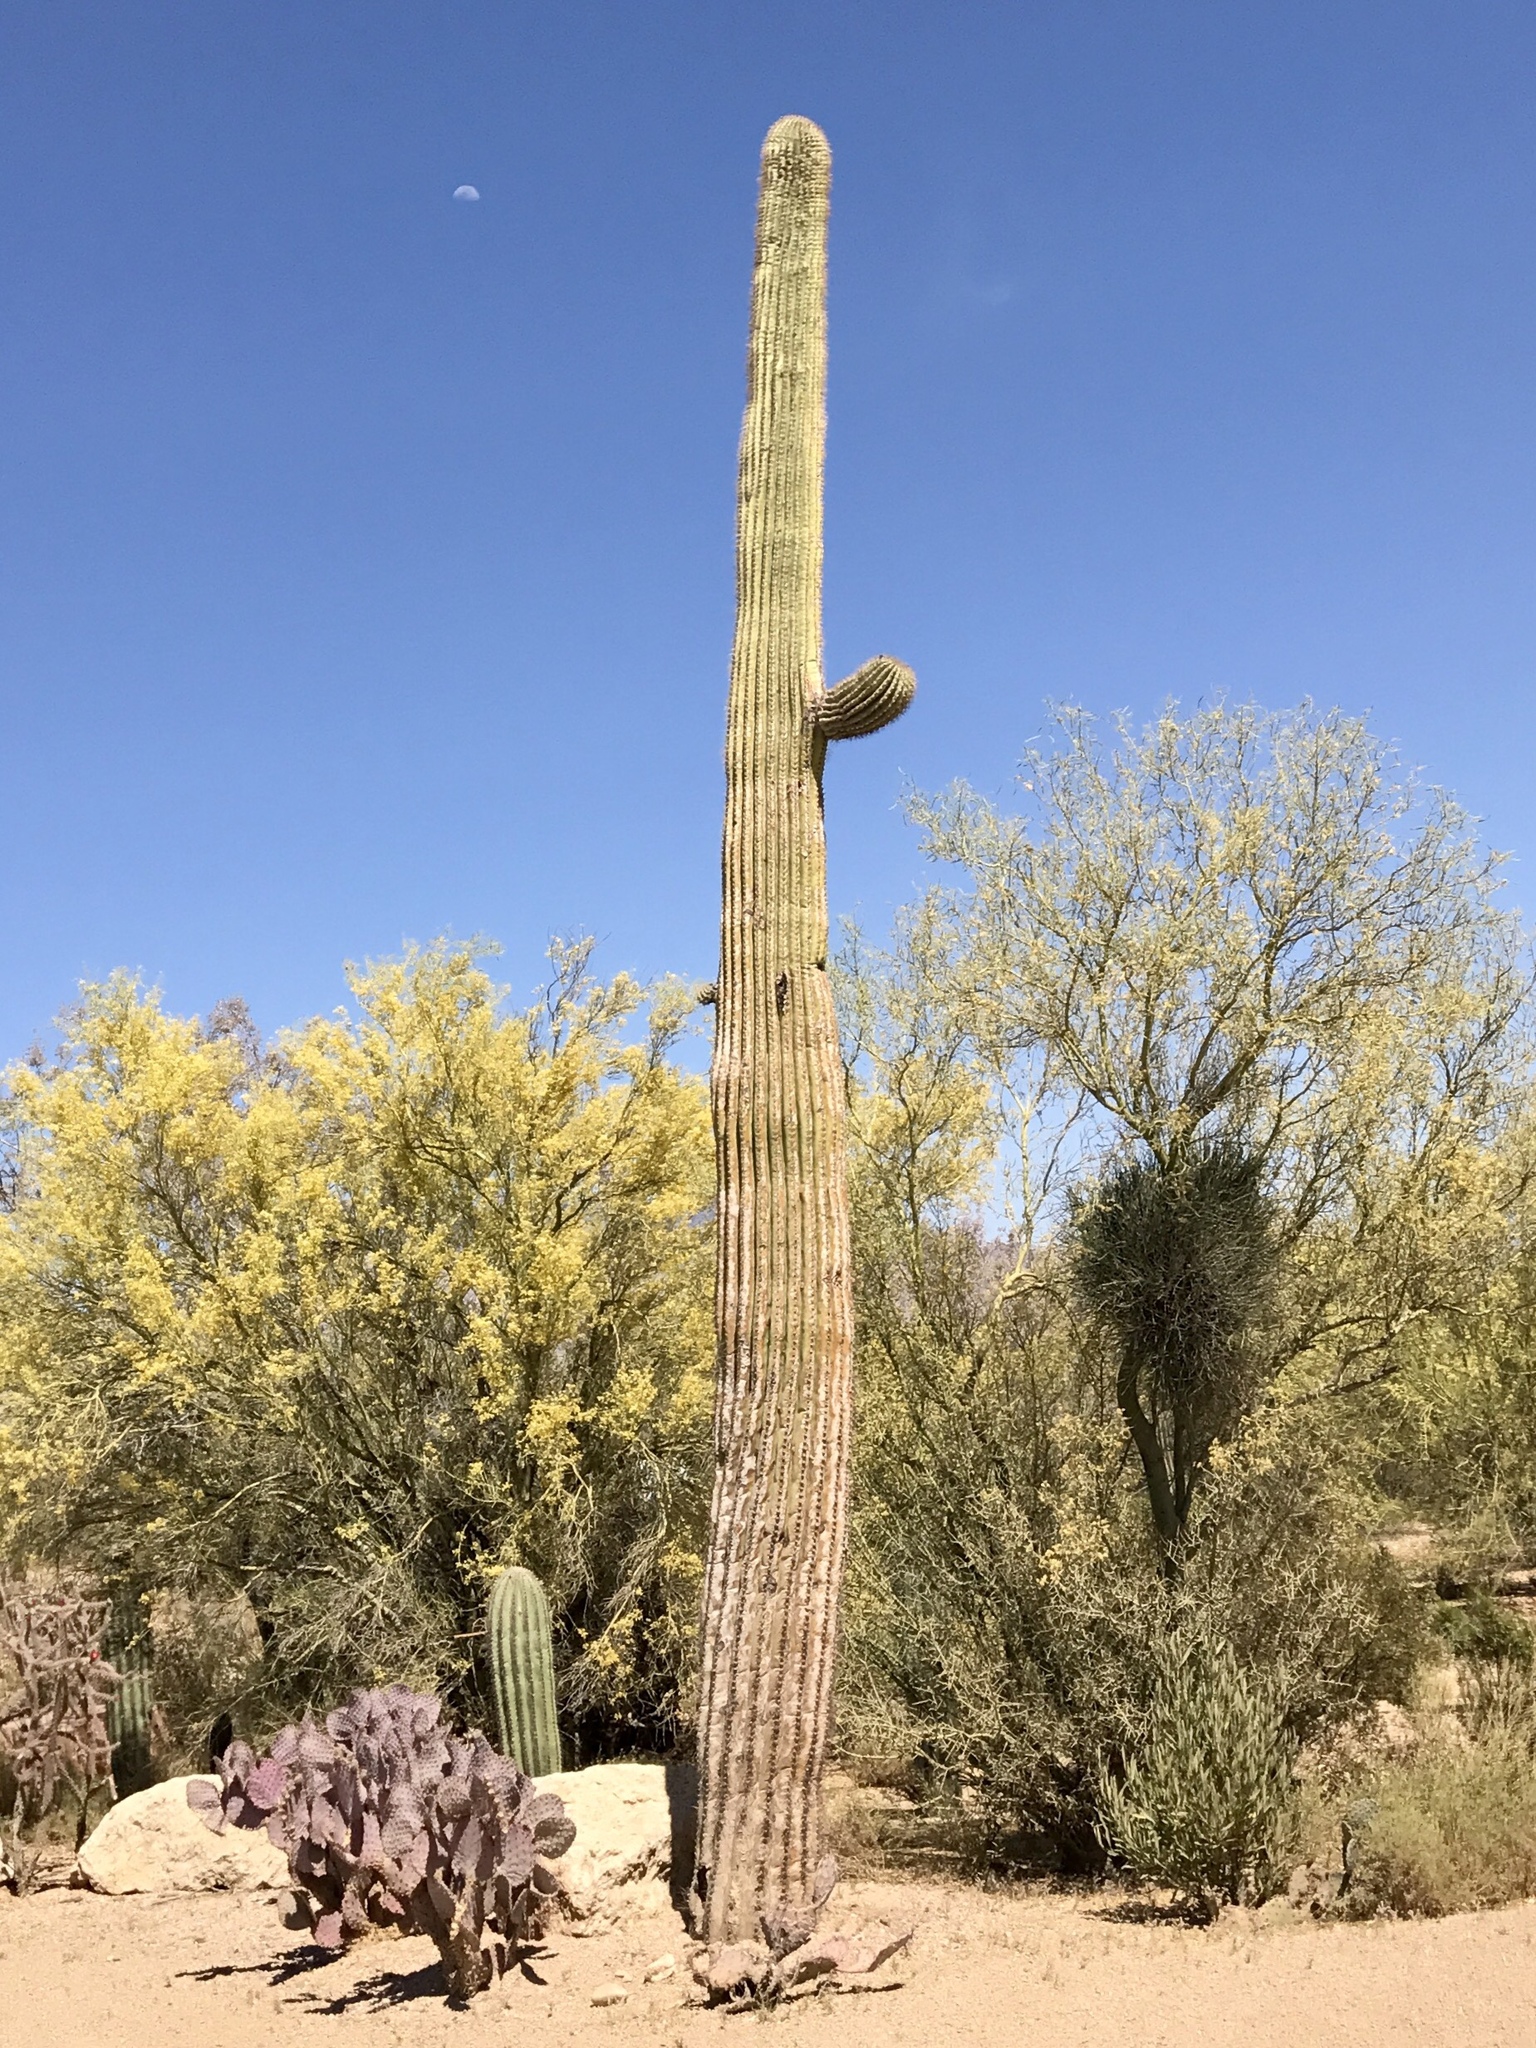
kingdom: Plantae
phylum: Tracheophyta
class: Magnoliopsida
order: Fabales
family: Fabaceae
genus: Parkinsonia
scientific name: Parkinsonia microphylla
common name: Yellow paloverde
